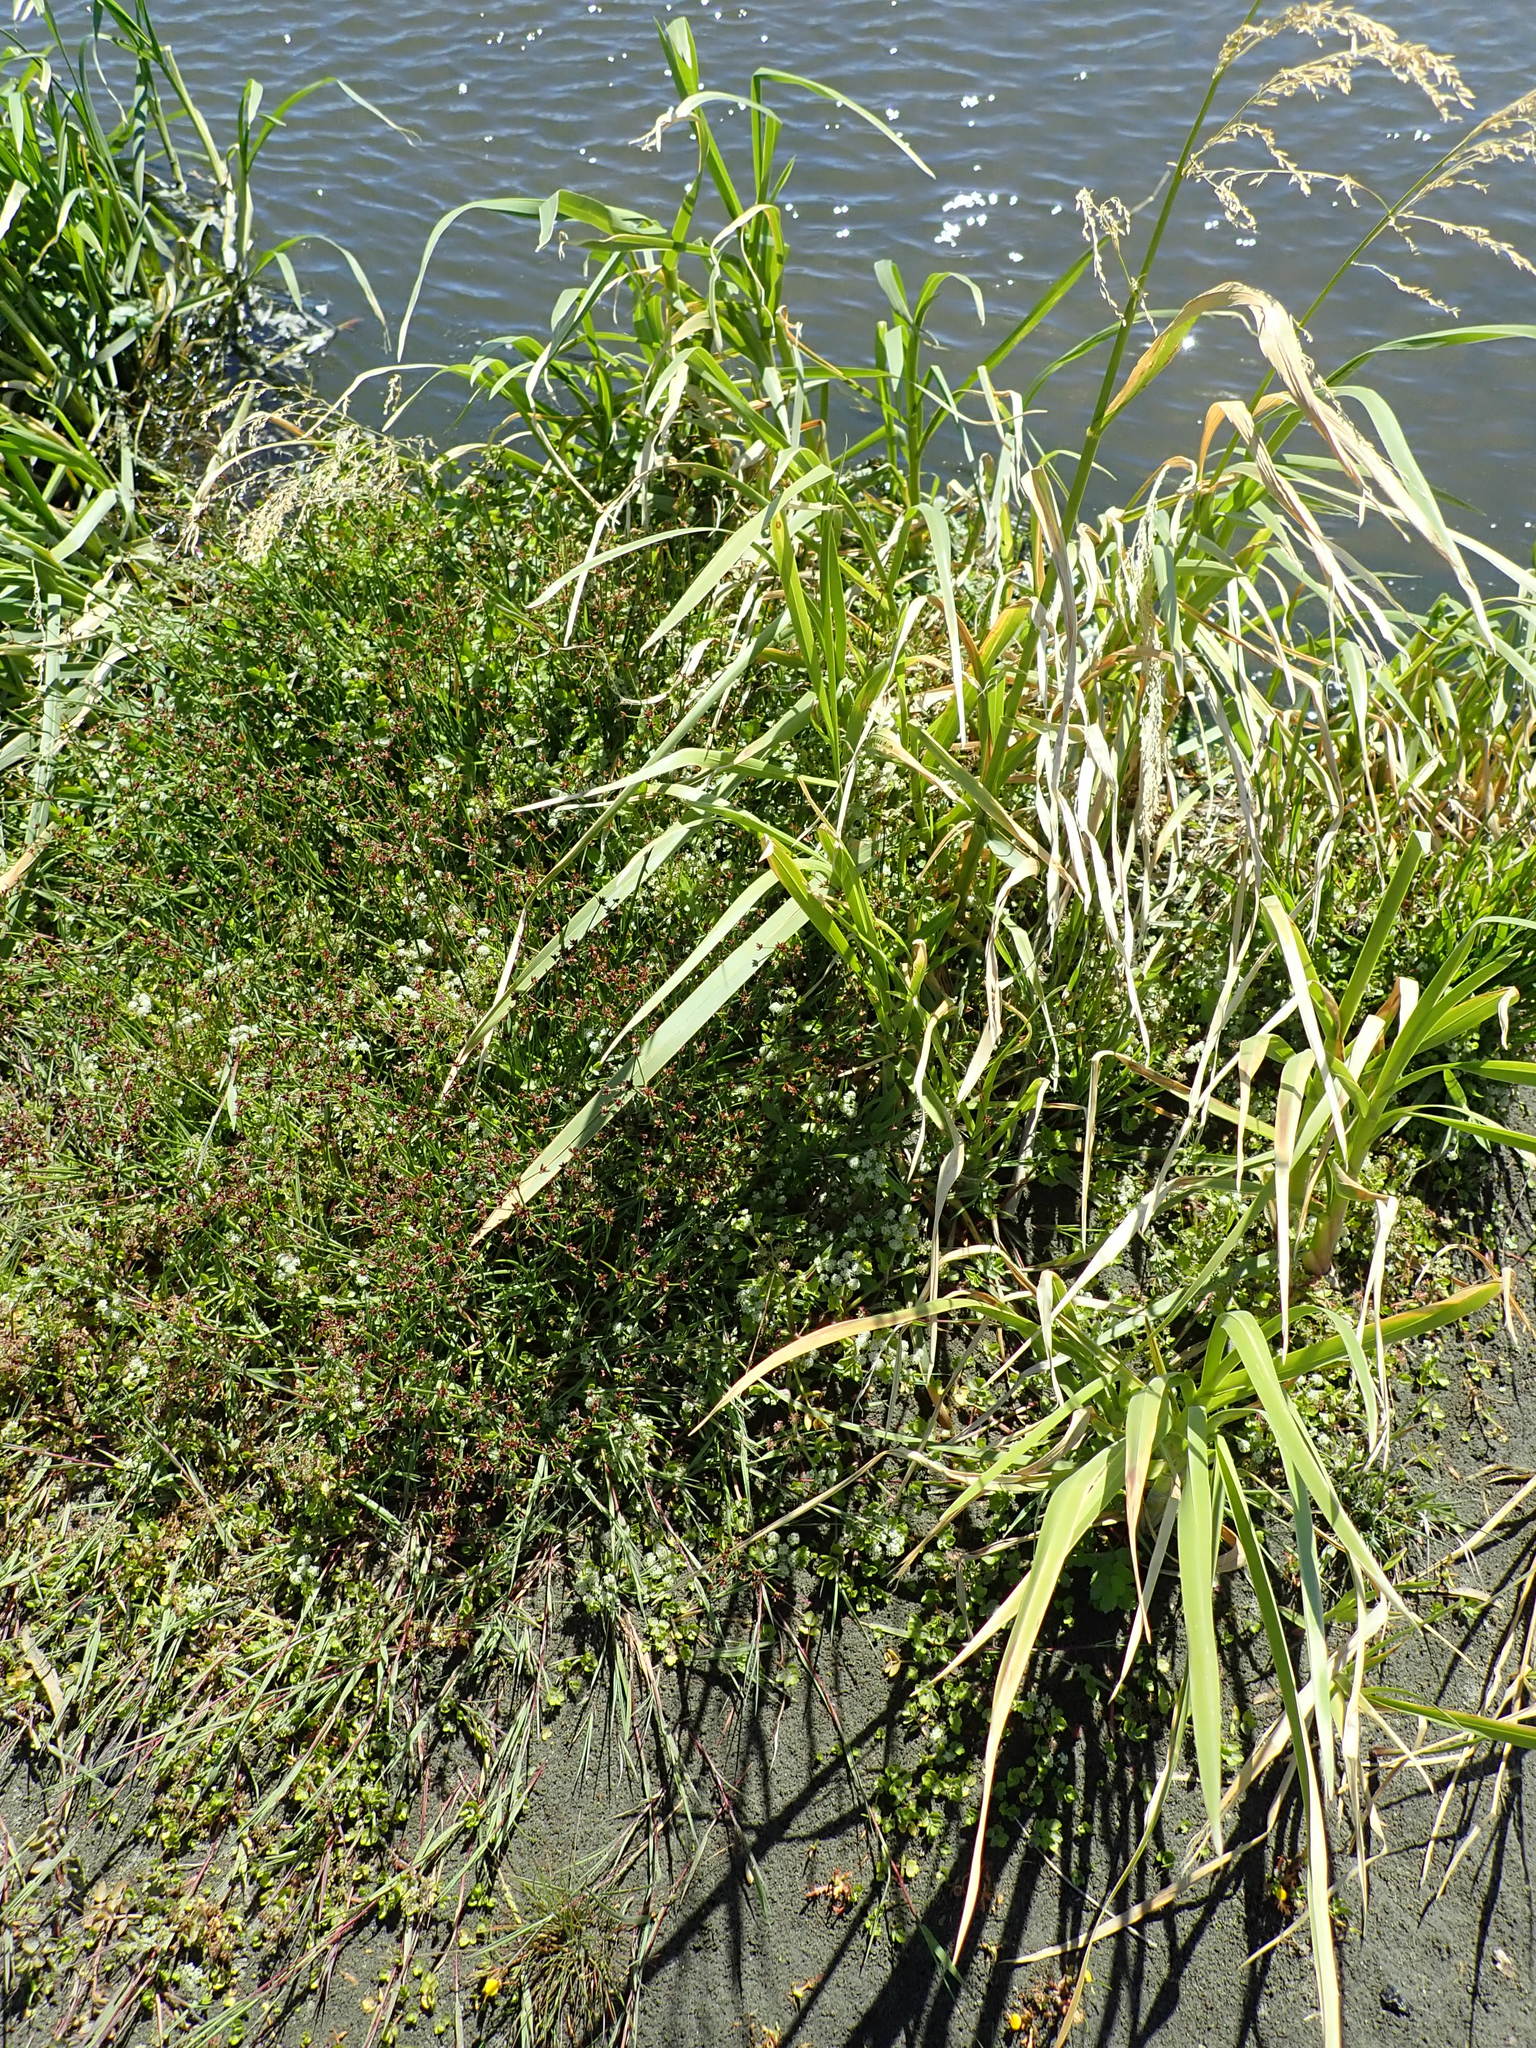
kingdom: Plantae
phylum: Tracheophyta
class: Liliopsida
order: Poales
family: Juncaceae
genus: Juncus
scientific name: Juncus articulatus
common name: Jointed rush
